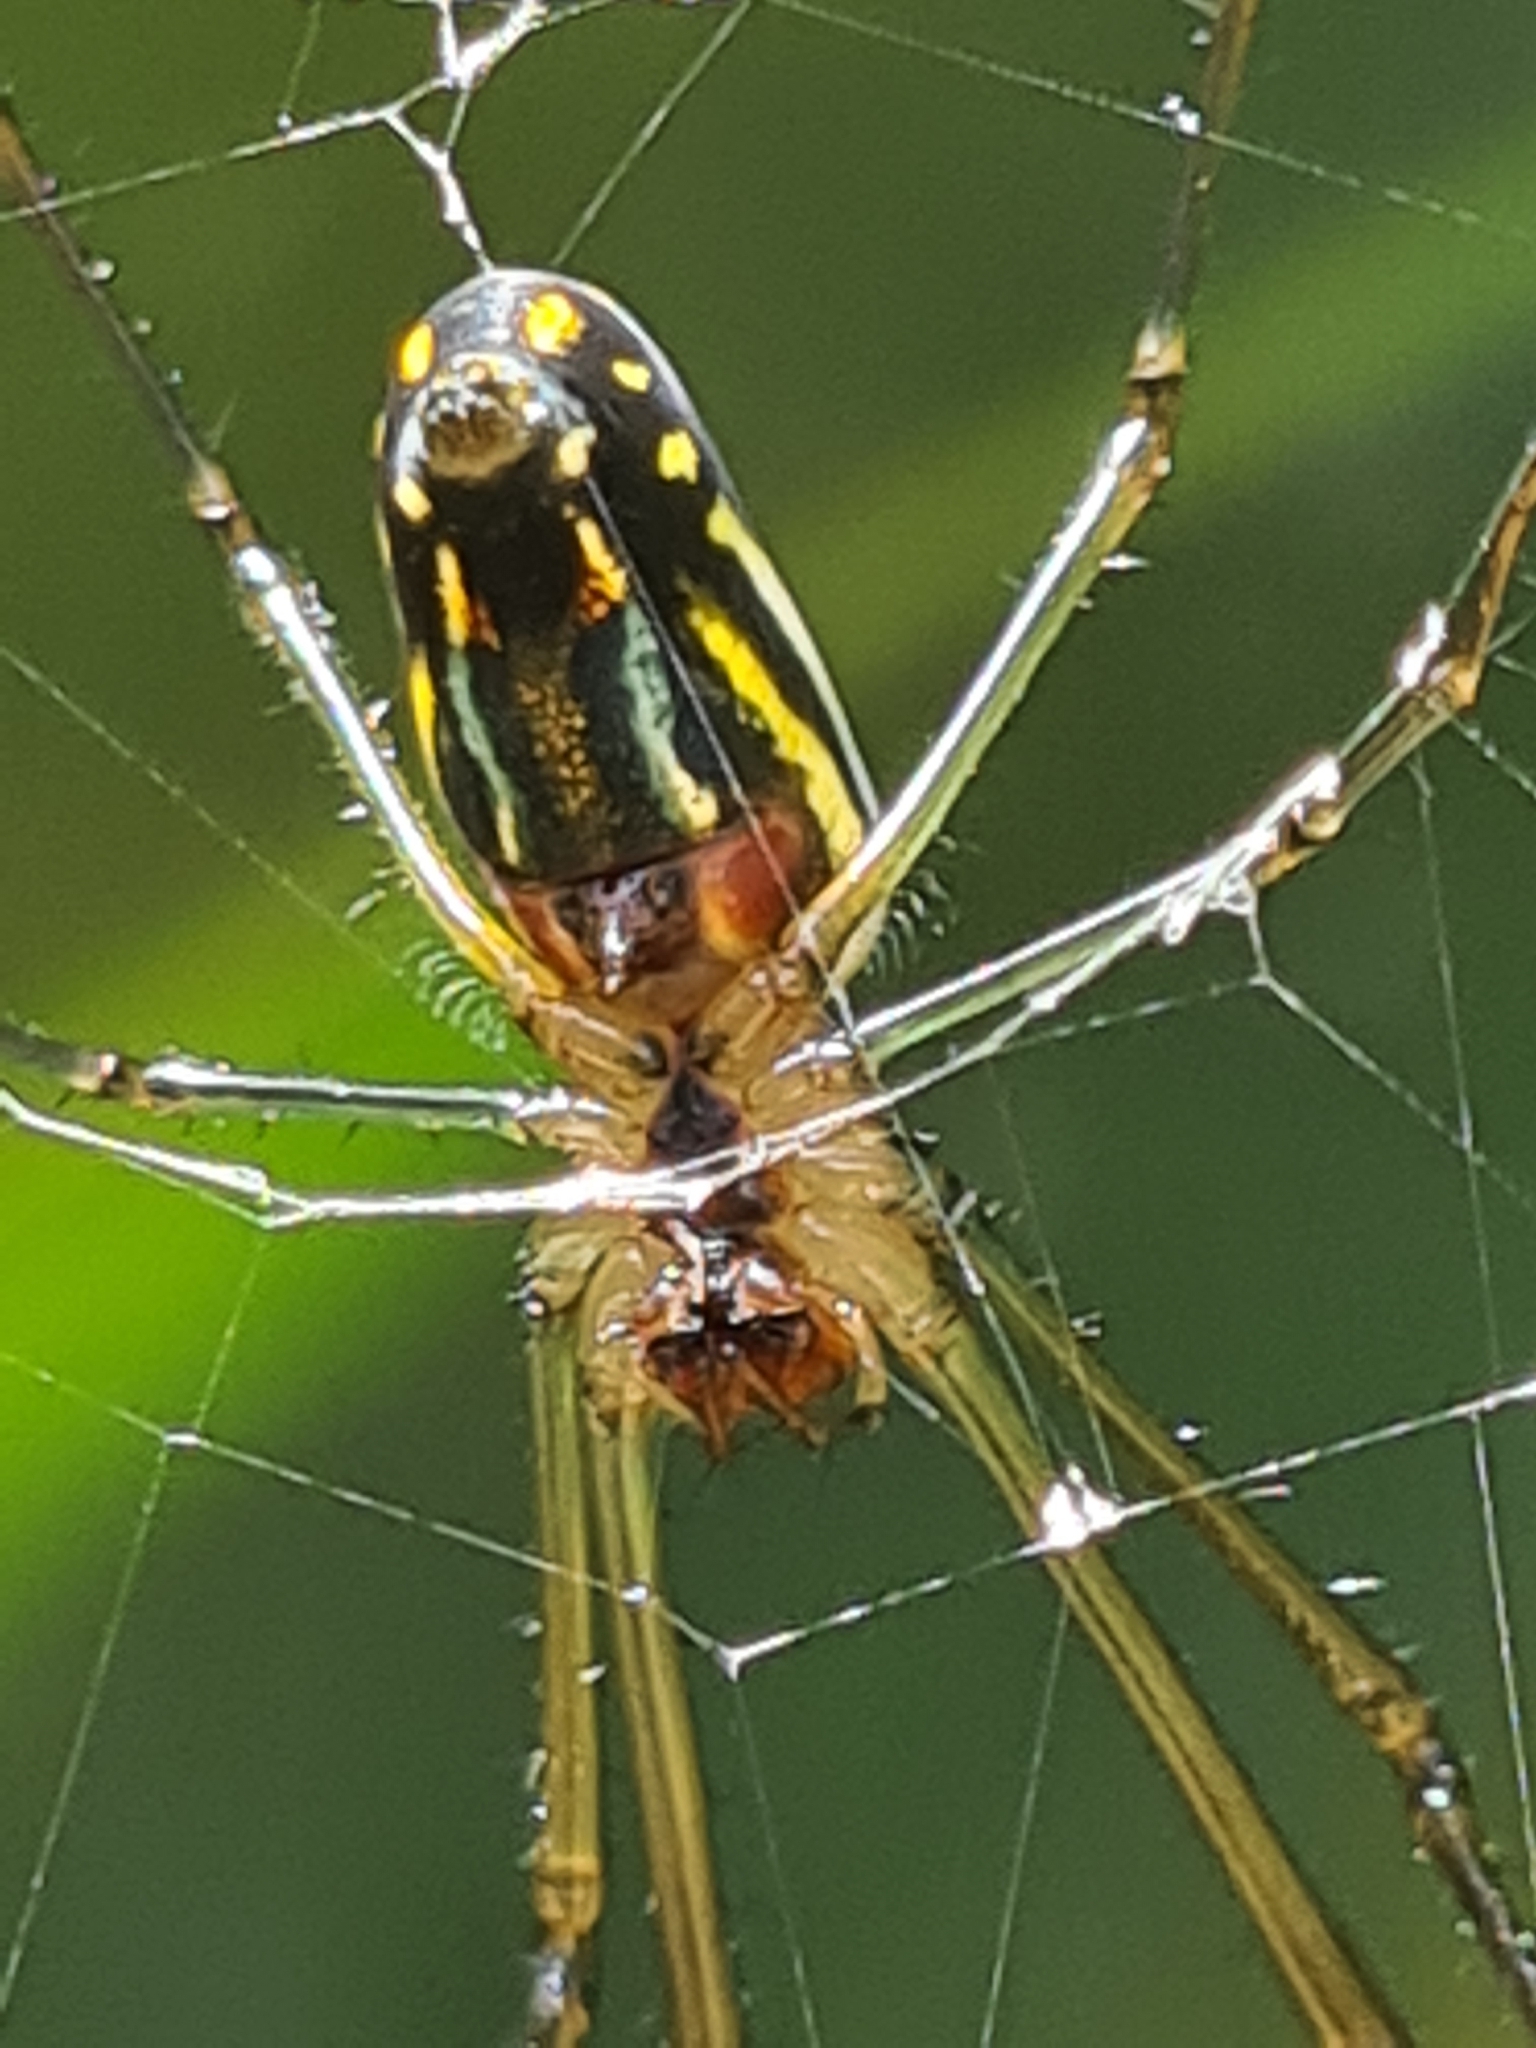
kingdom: Animalia
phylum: Arthropoda
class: Arachnida
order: Araneae
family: Tetragnathidae
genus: Leucauge
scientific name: Leucauge argyra
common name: Longjawed orb weavers
